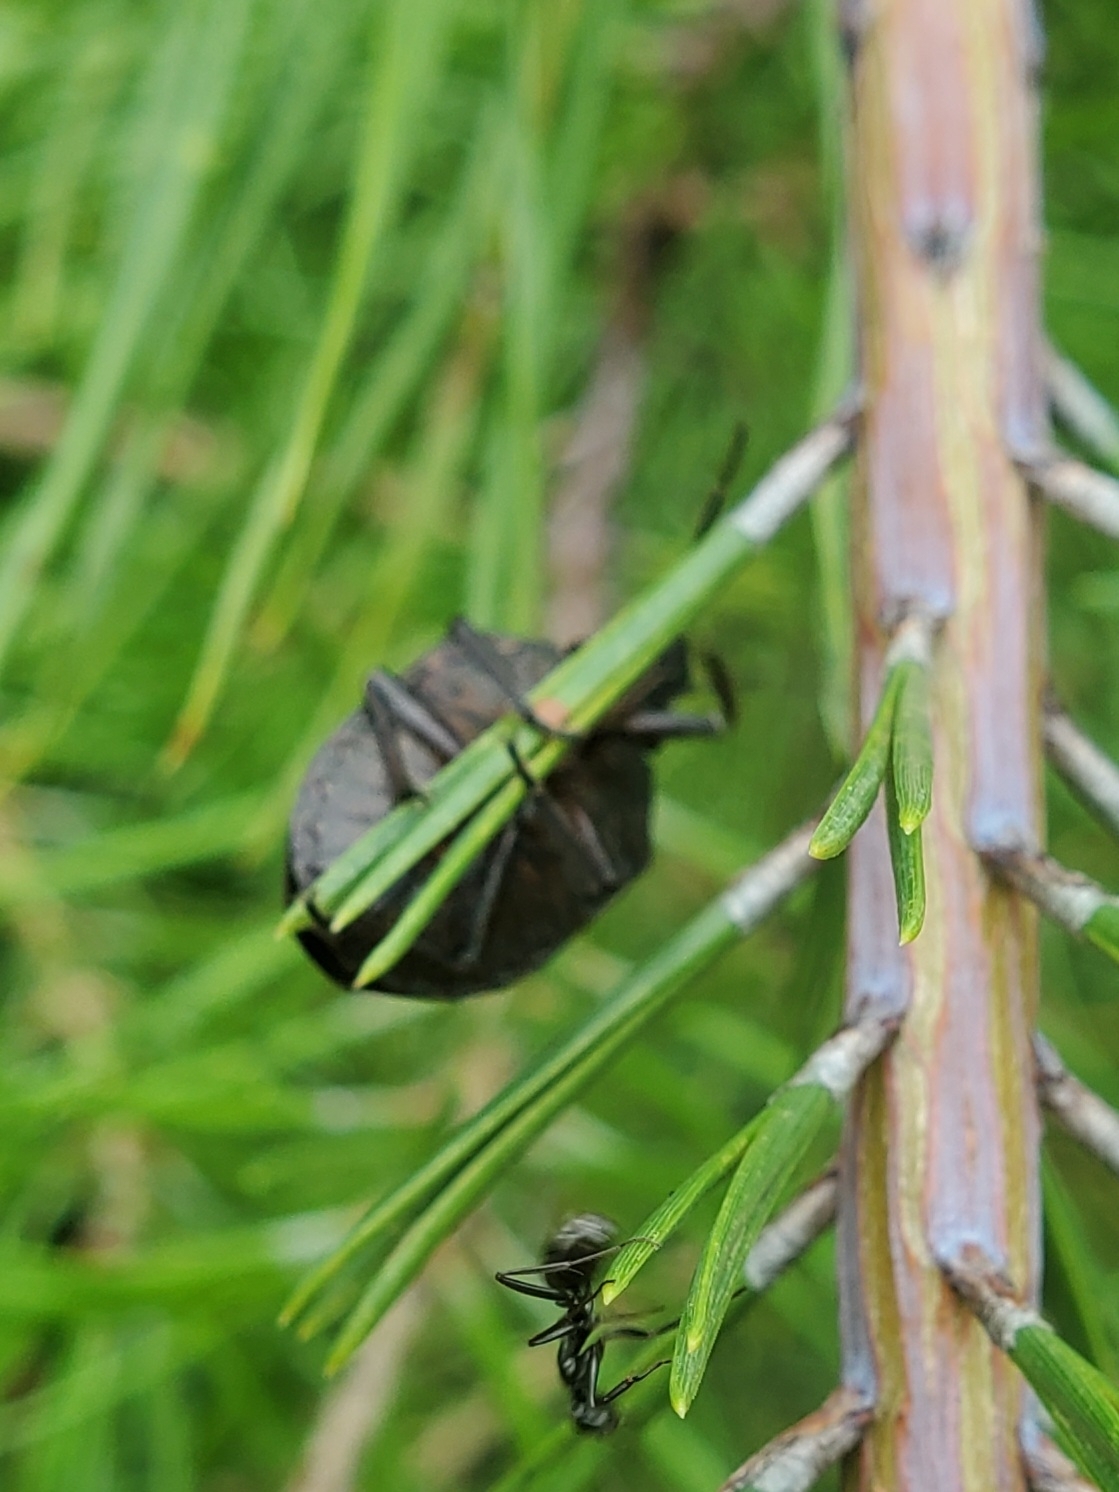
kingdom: Animalia
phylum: Arthropoda
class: Insecta
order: Hemiptera
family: Scutelleridae
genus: Tetyra
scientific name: Tetyra bipunctata
